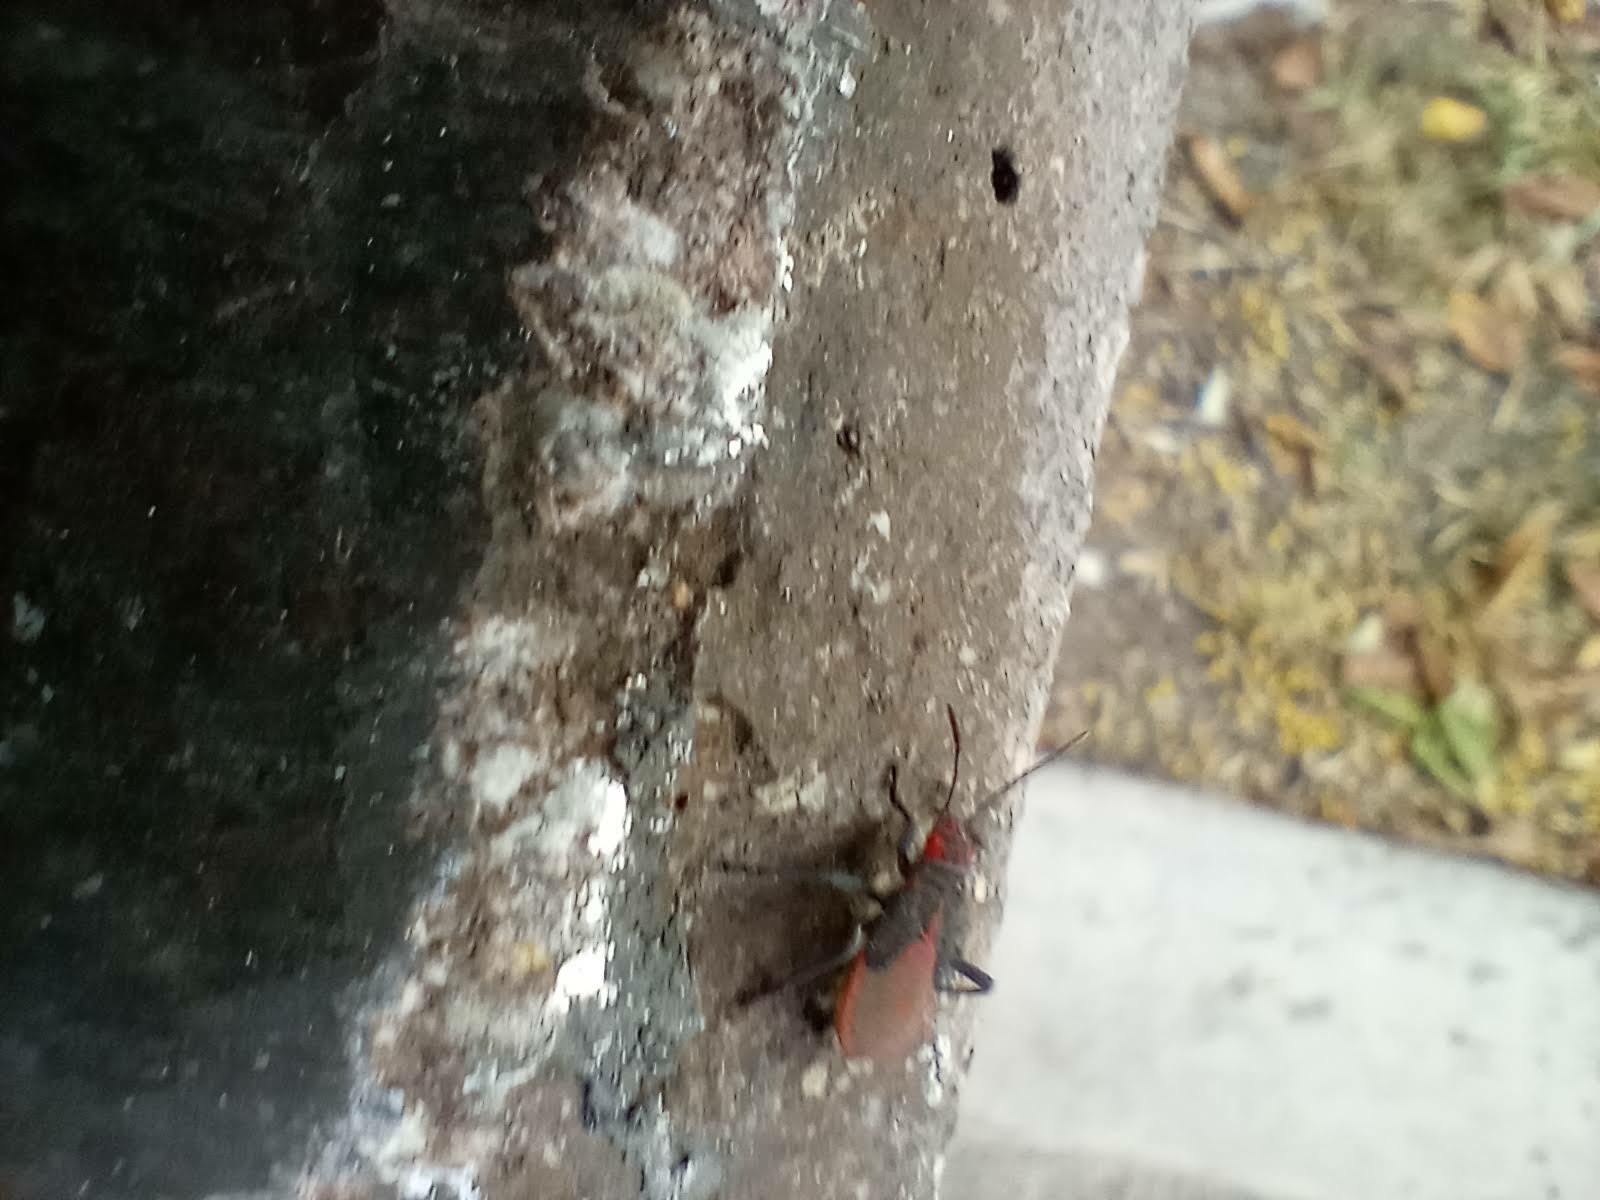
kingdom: Animalia
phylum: Arthropoda
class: Insecta
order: Hemiptera
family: Rhopalidae
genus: Jadera
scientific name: Jadera haematoloma
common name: Red-shouldered bug
